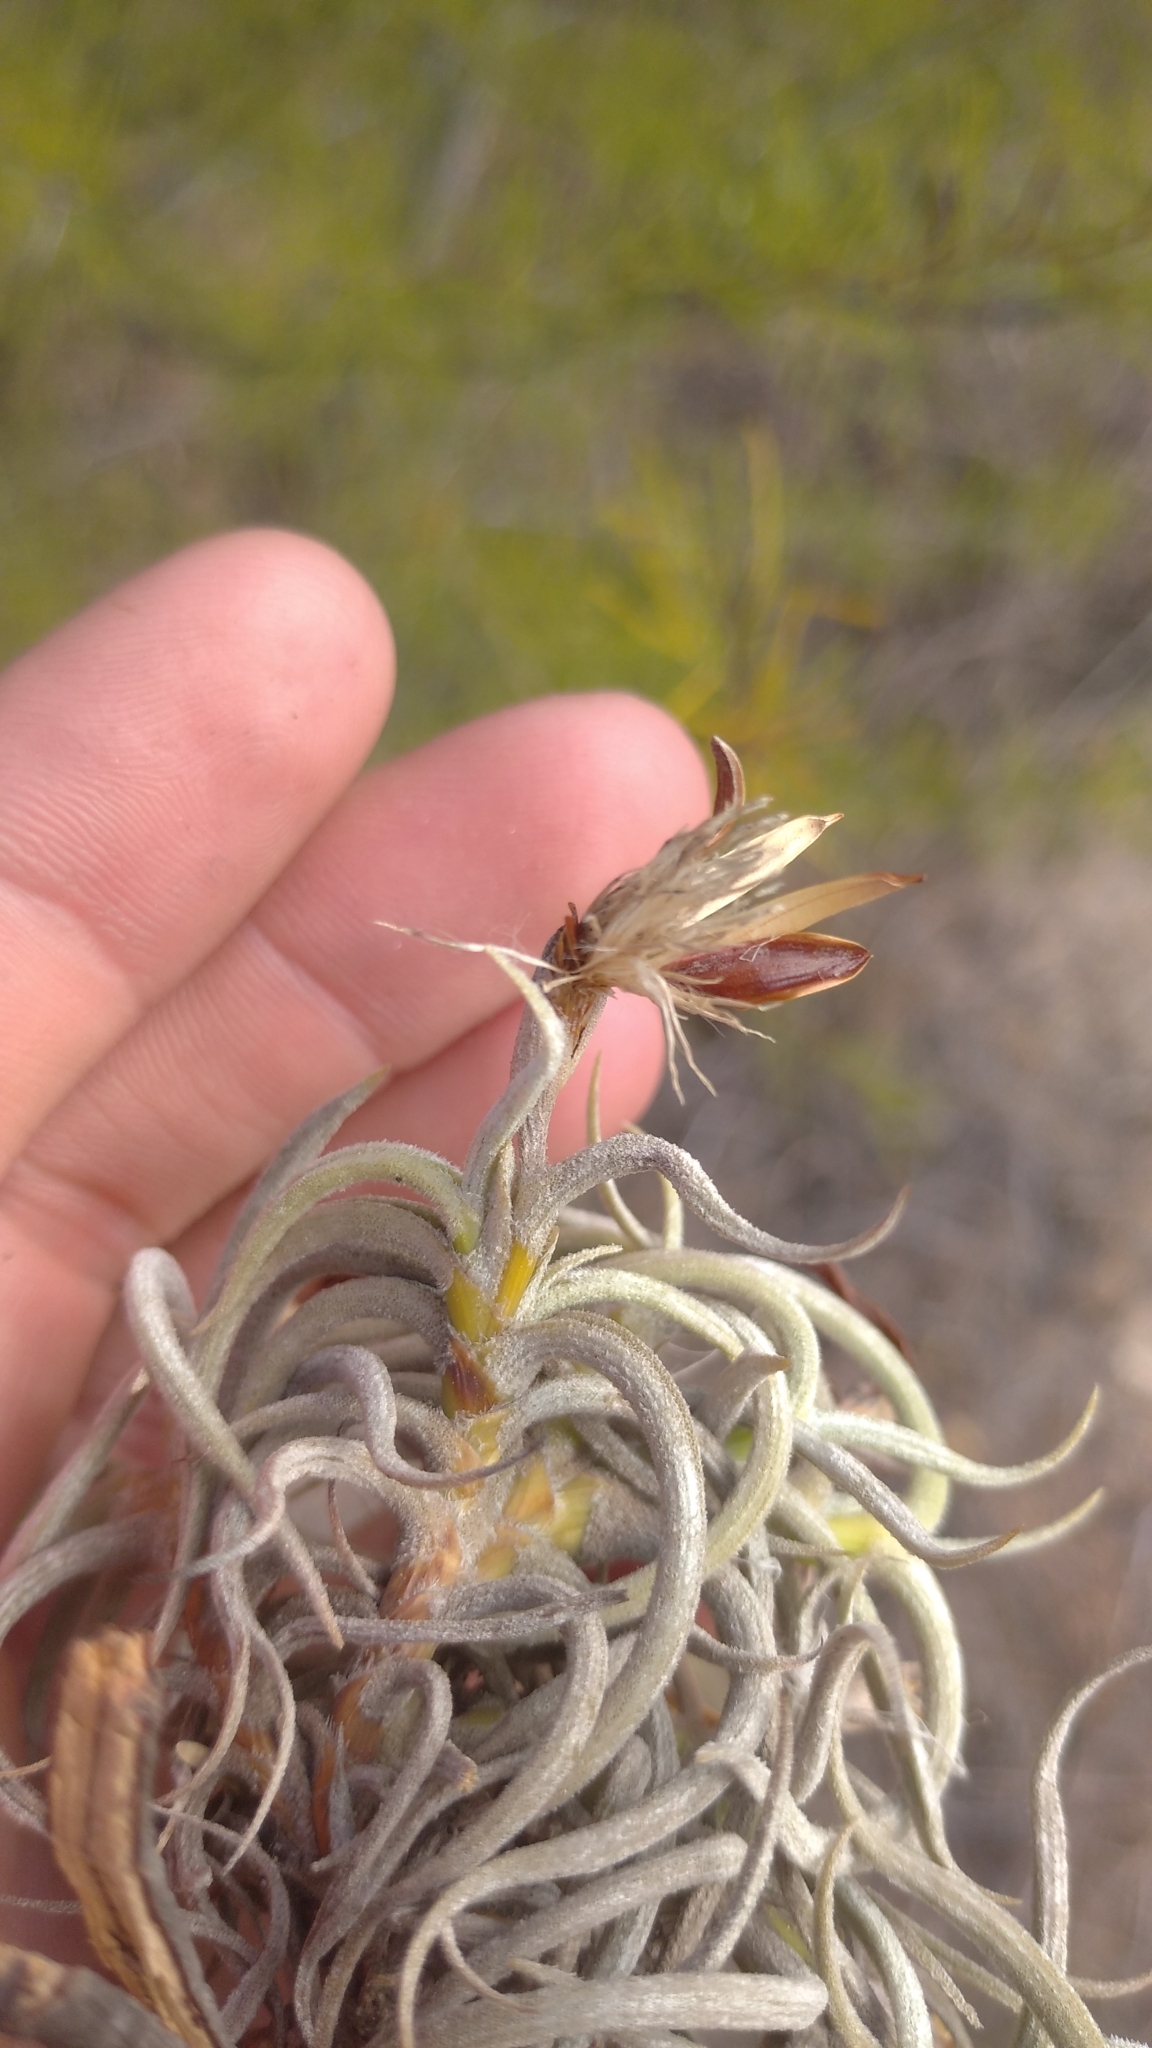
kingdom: Plantae
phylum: Tracheophyta
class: Liliopsida
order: Poales
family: Bromeliaceae
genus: Tillandsia
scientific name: Tillandsia retorta
